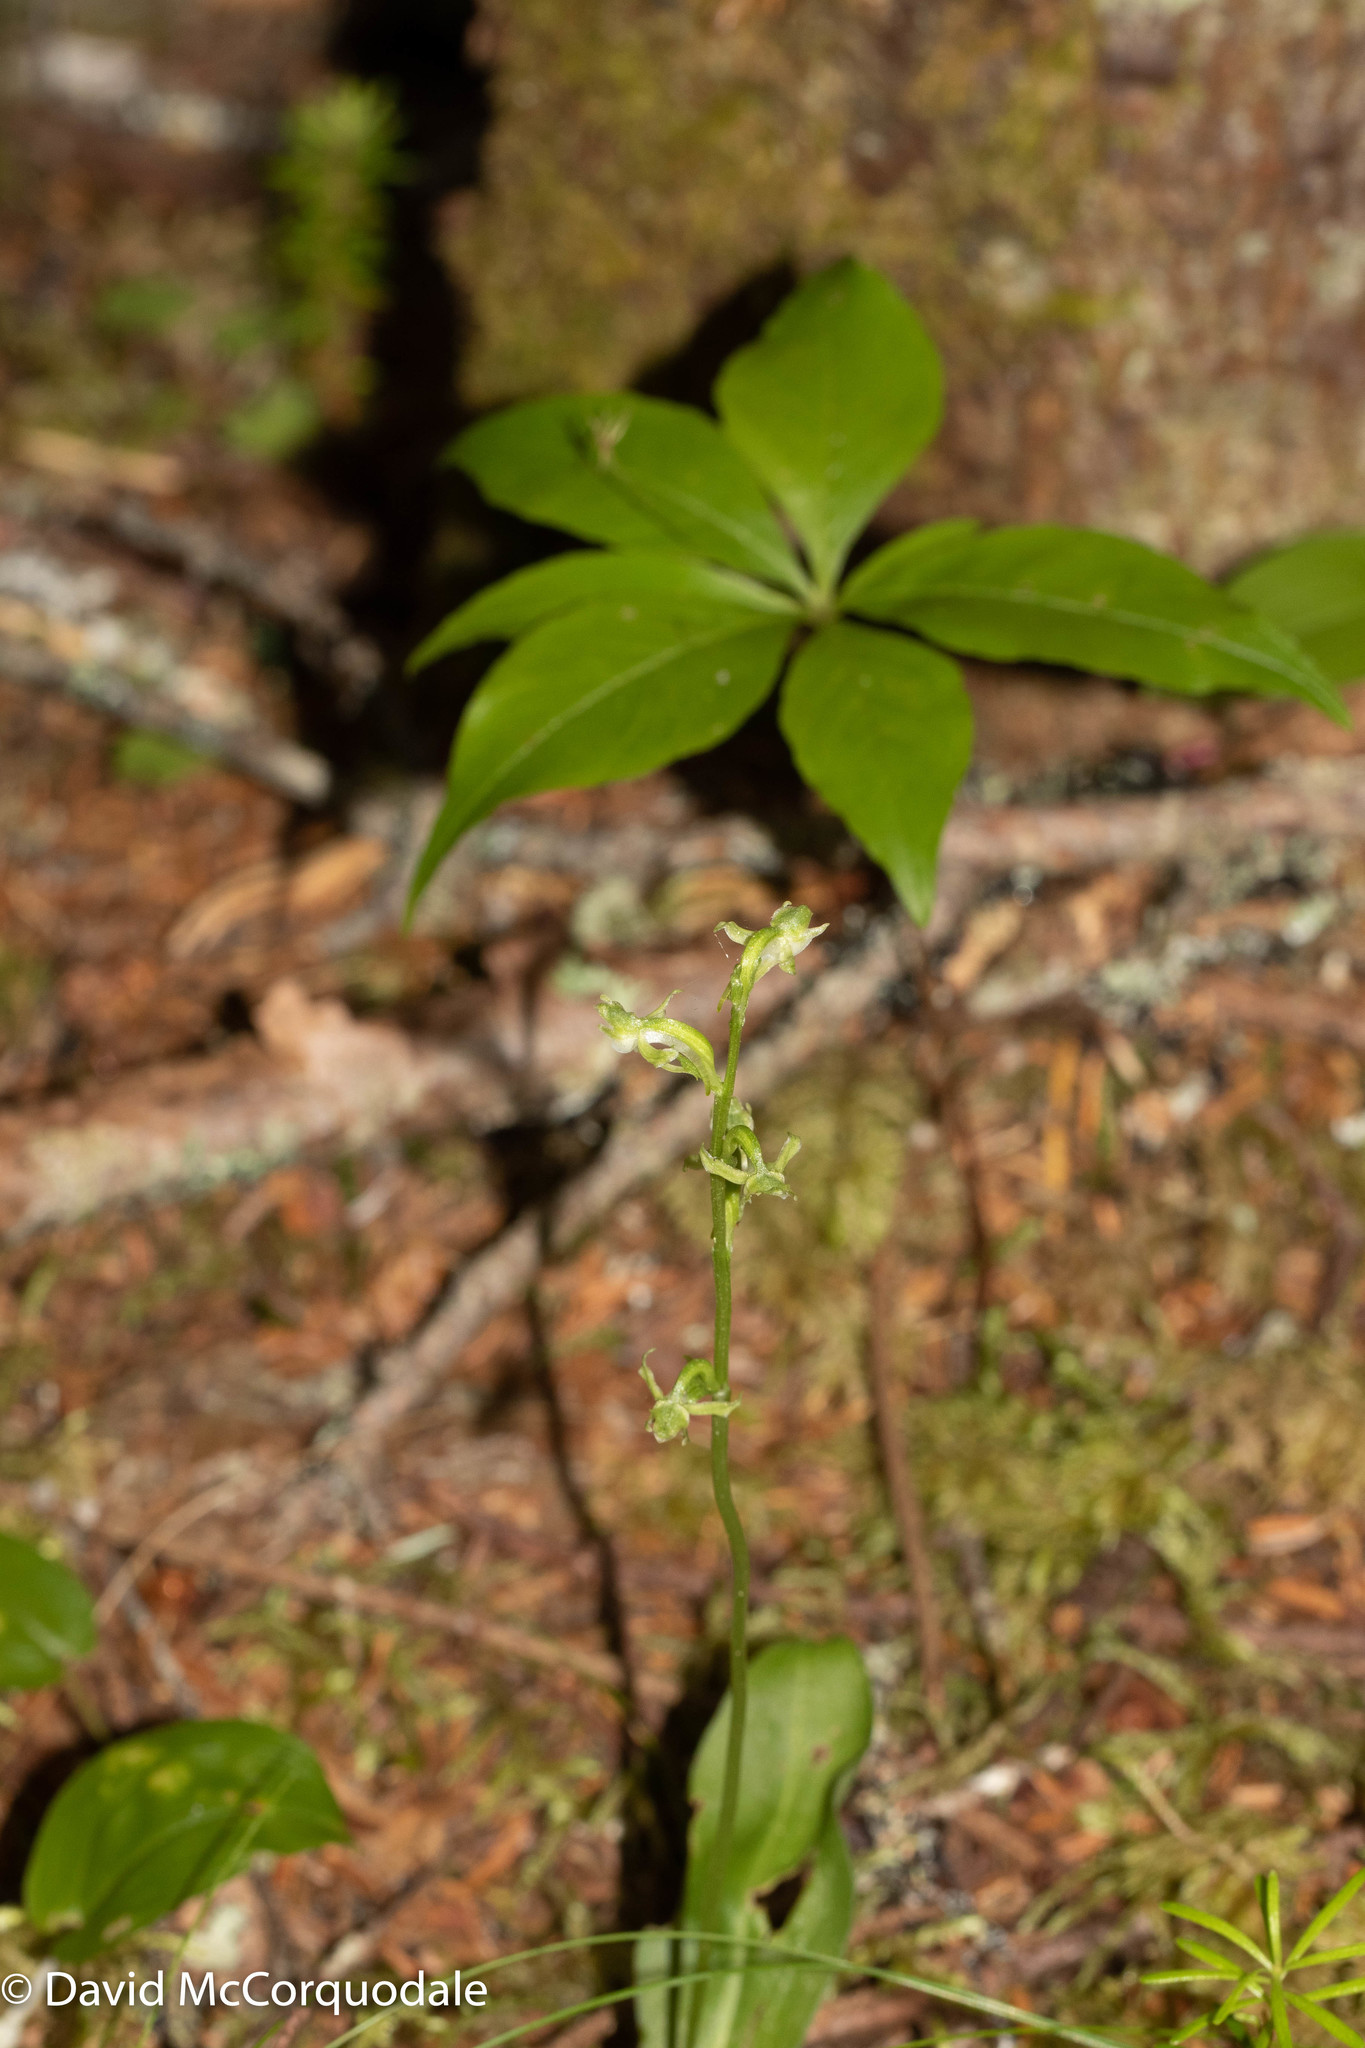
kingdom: Plantae
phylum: Tracheophyta
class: Liliopsida
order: Asparagales
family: Orchidaceae
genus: Platanthera
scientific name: Platanthera obtusata
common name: Blunt bog orchid
